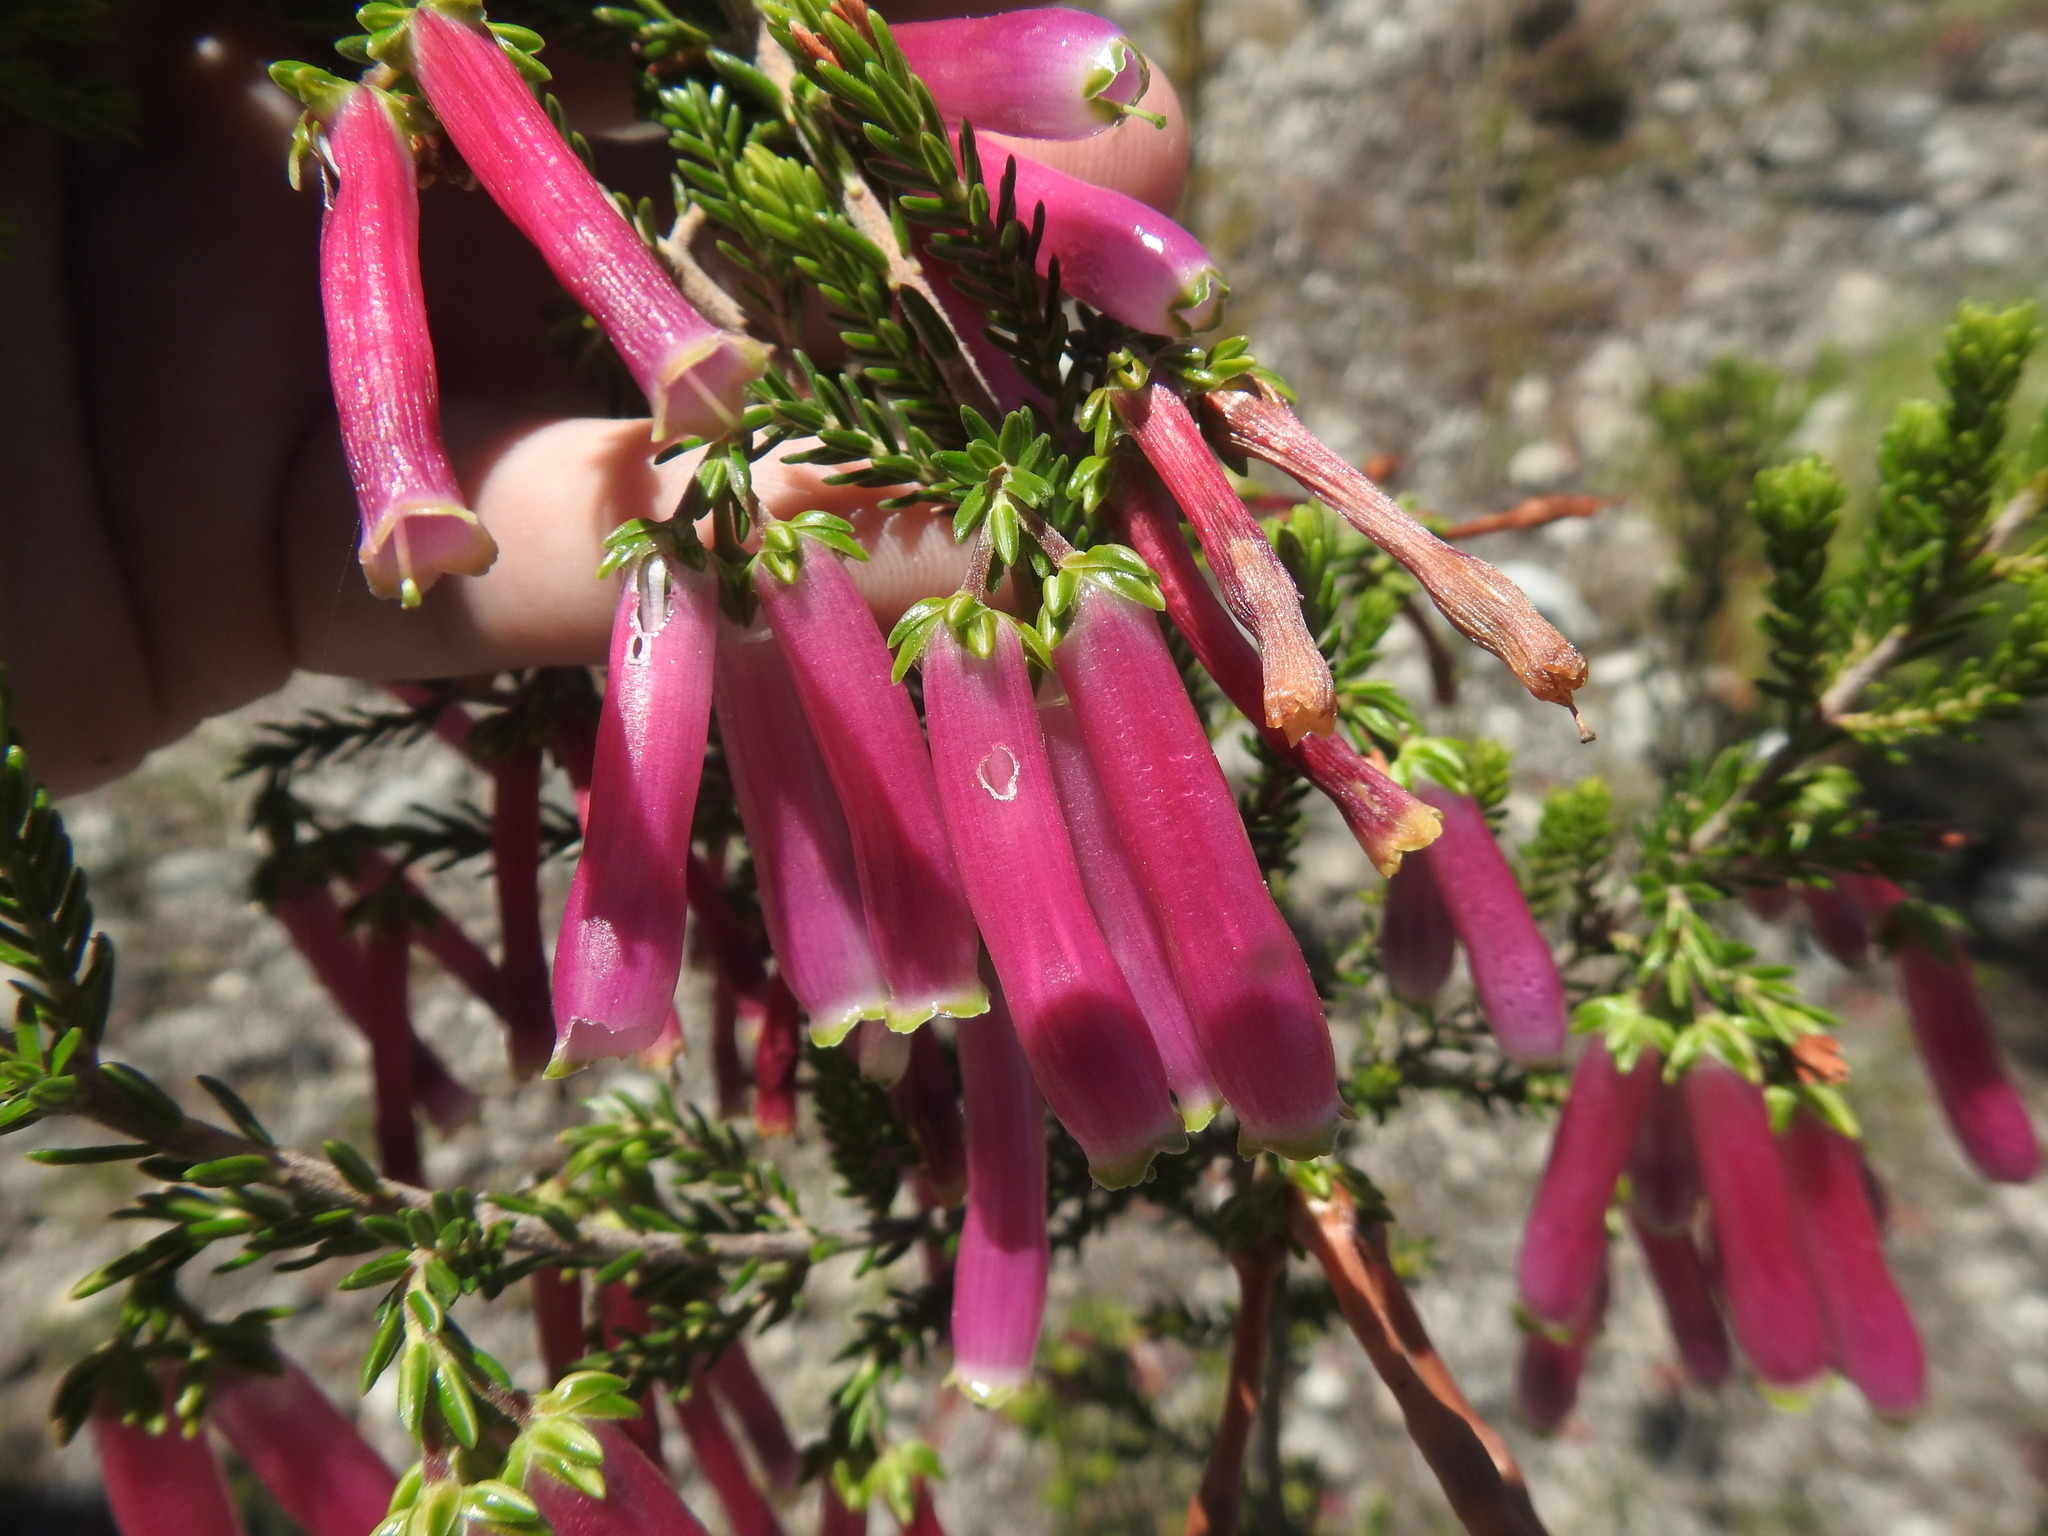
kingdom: Plantae
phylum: Tracheophyta
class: Magnoliopsida
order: Ericales
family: Ericaceae
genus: Erica
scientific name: Erica diaphana
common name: Heath
